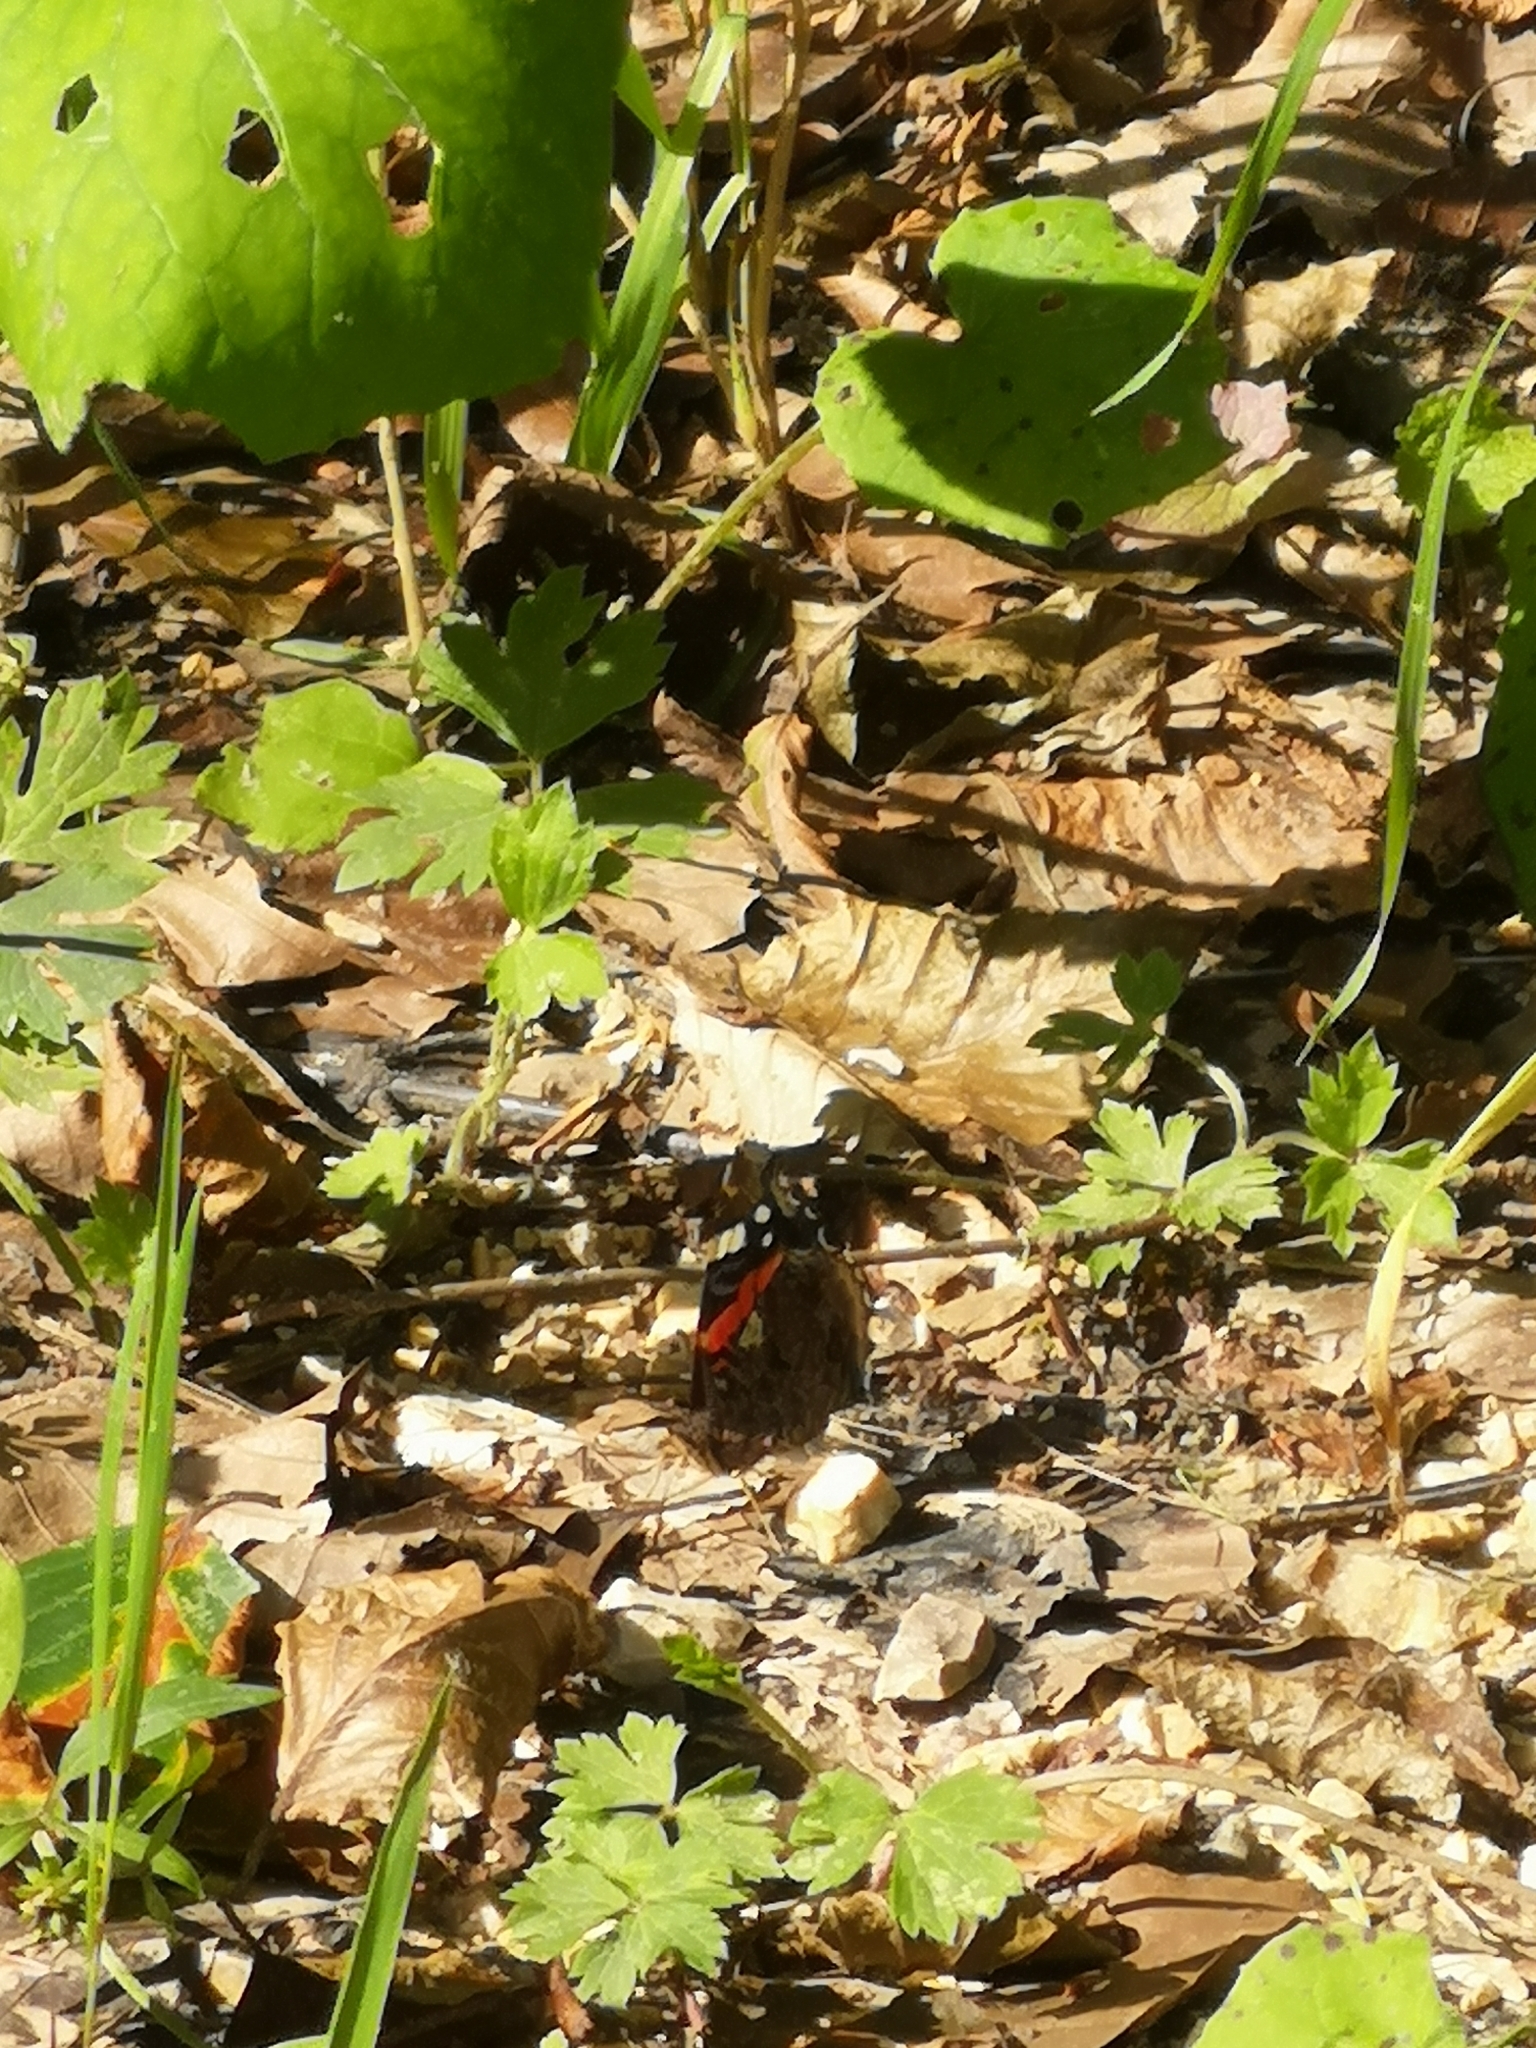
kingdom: Animalia
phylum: Arthropoda
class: Insecta
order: Lepidoptera
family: Nymphalidae
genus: Vanessa
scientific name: Vanessa atalanta
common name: Red admiral
